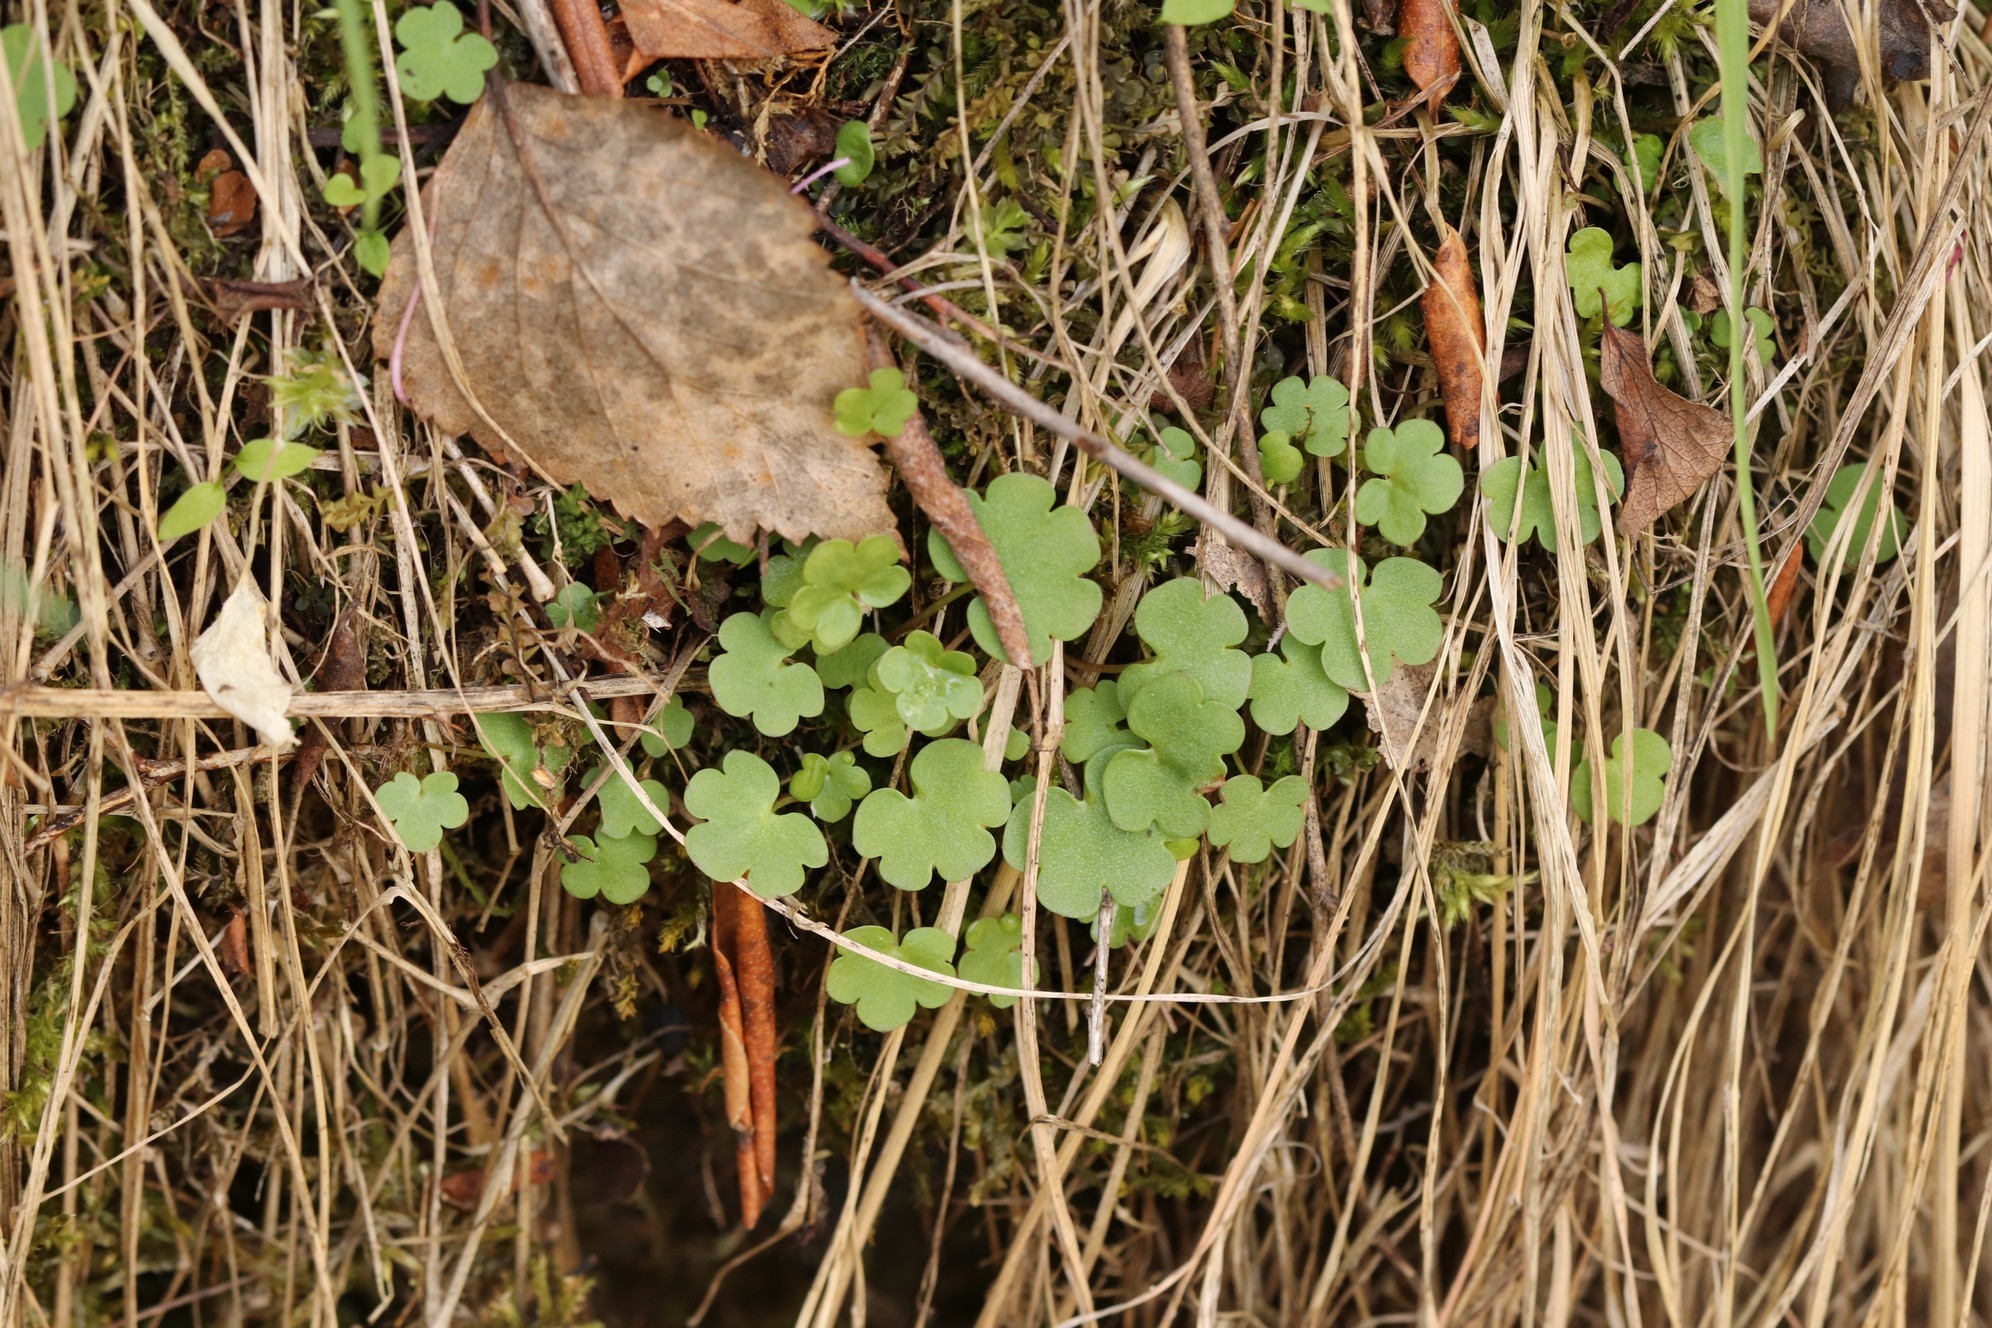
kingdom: Plantae
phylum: Tracheophyta
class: Magnoliopsida
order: Saxifragales
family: Saxifragaceae
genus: Saxifraga
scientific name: Saxifraga sibirica
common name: Siberian saxifrage
